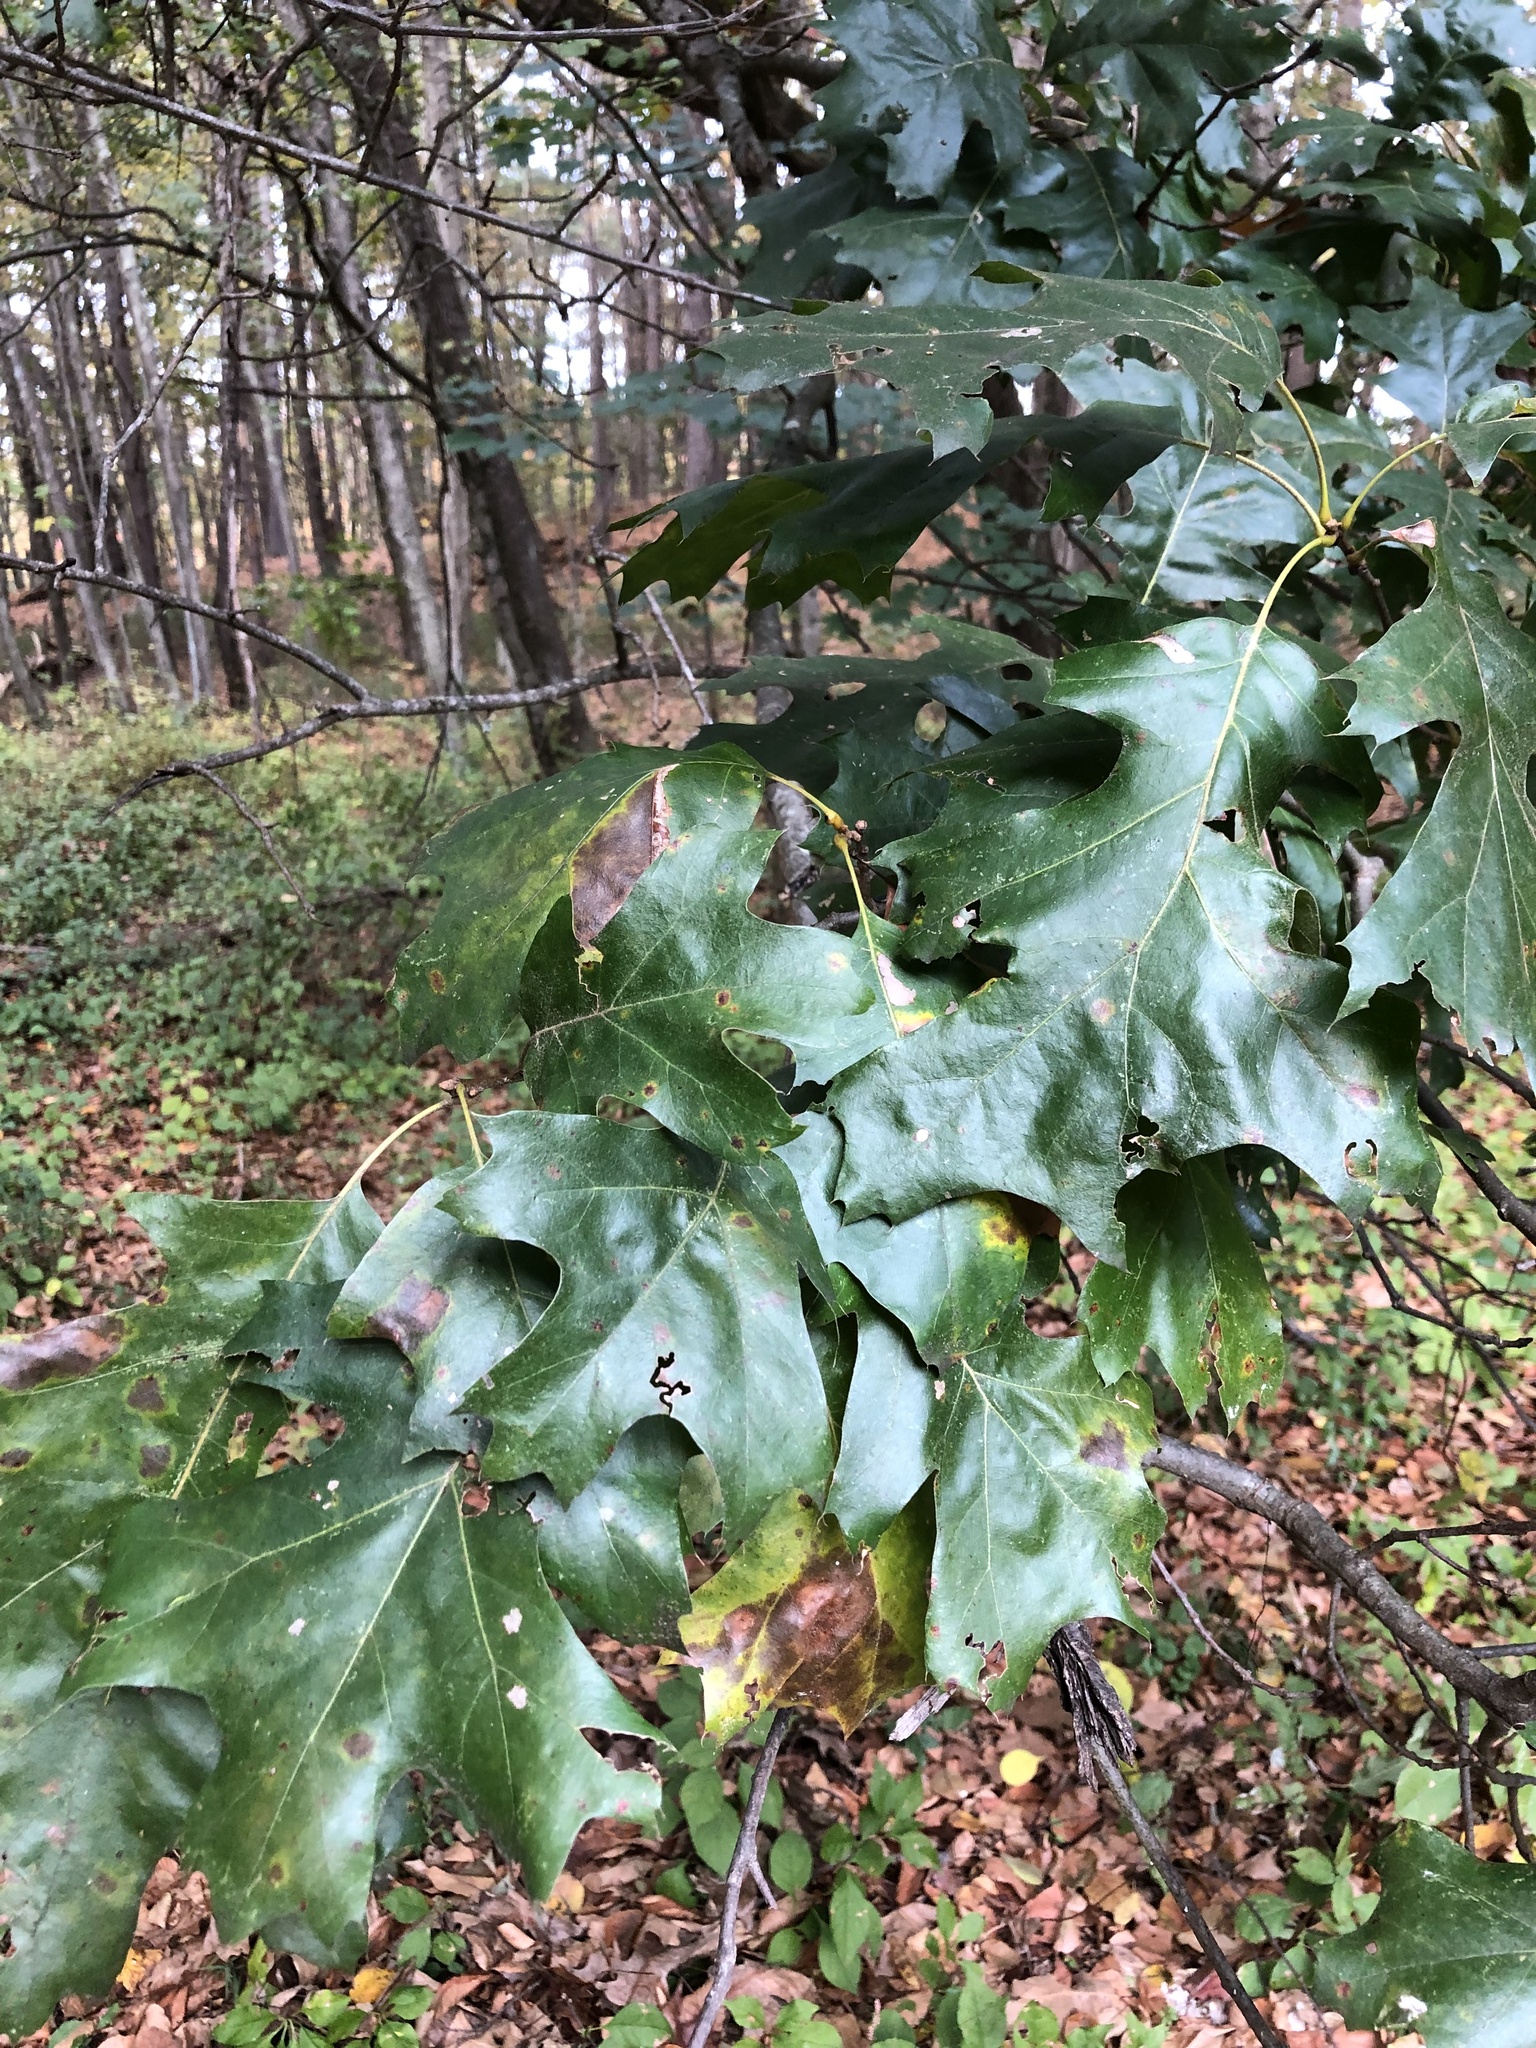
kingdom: Plantae
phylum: Tracheophyta
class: Magnoliopsida
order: Fagales
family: Fagaceae
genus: Quercus
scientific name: Quercus velutina
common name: Black oak
